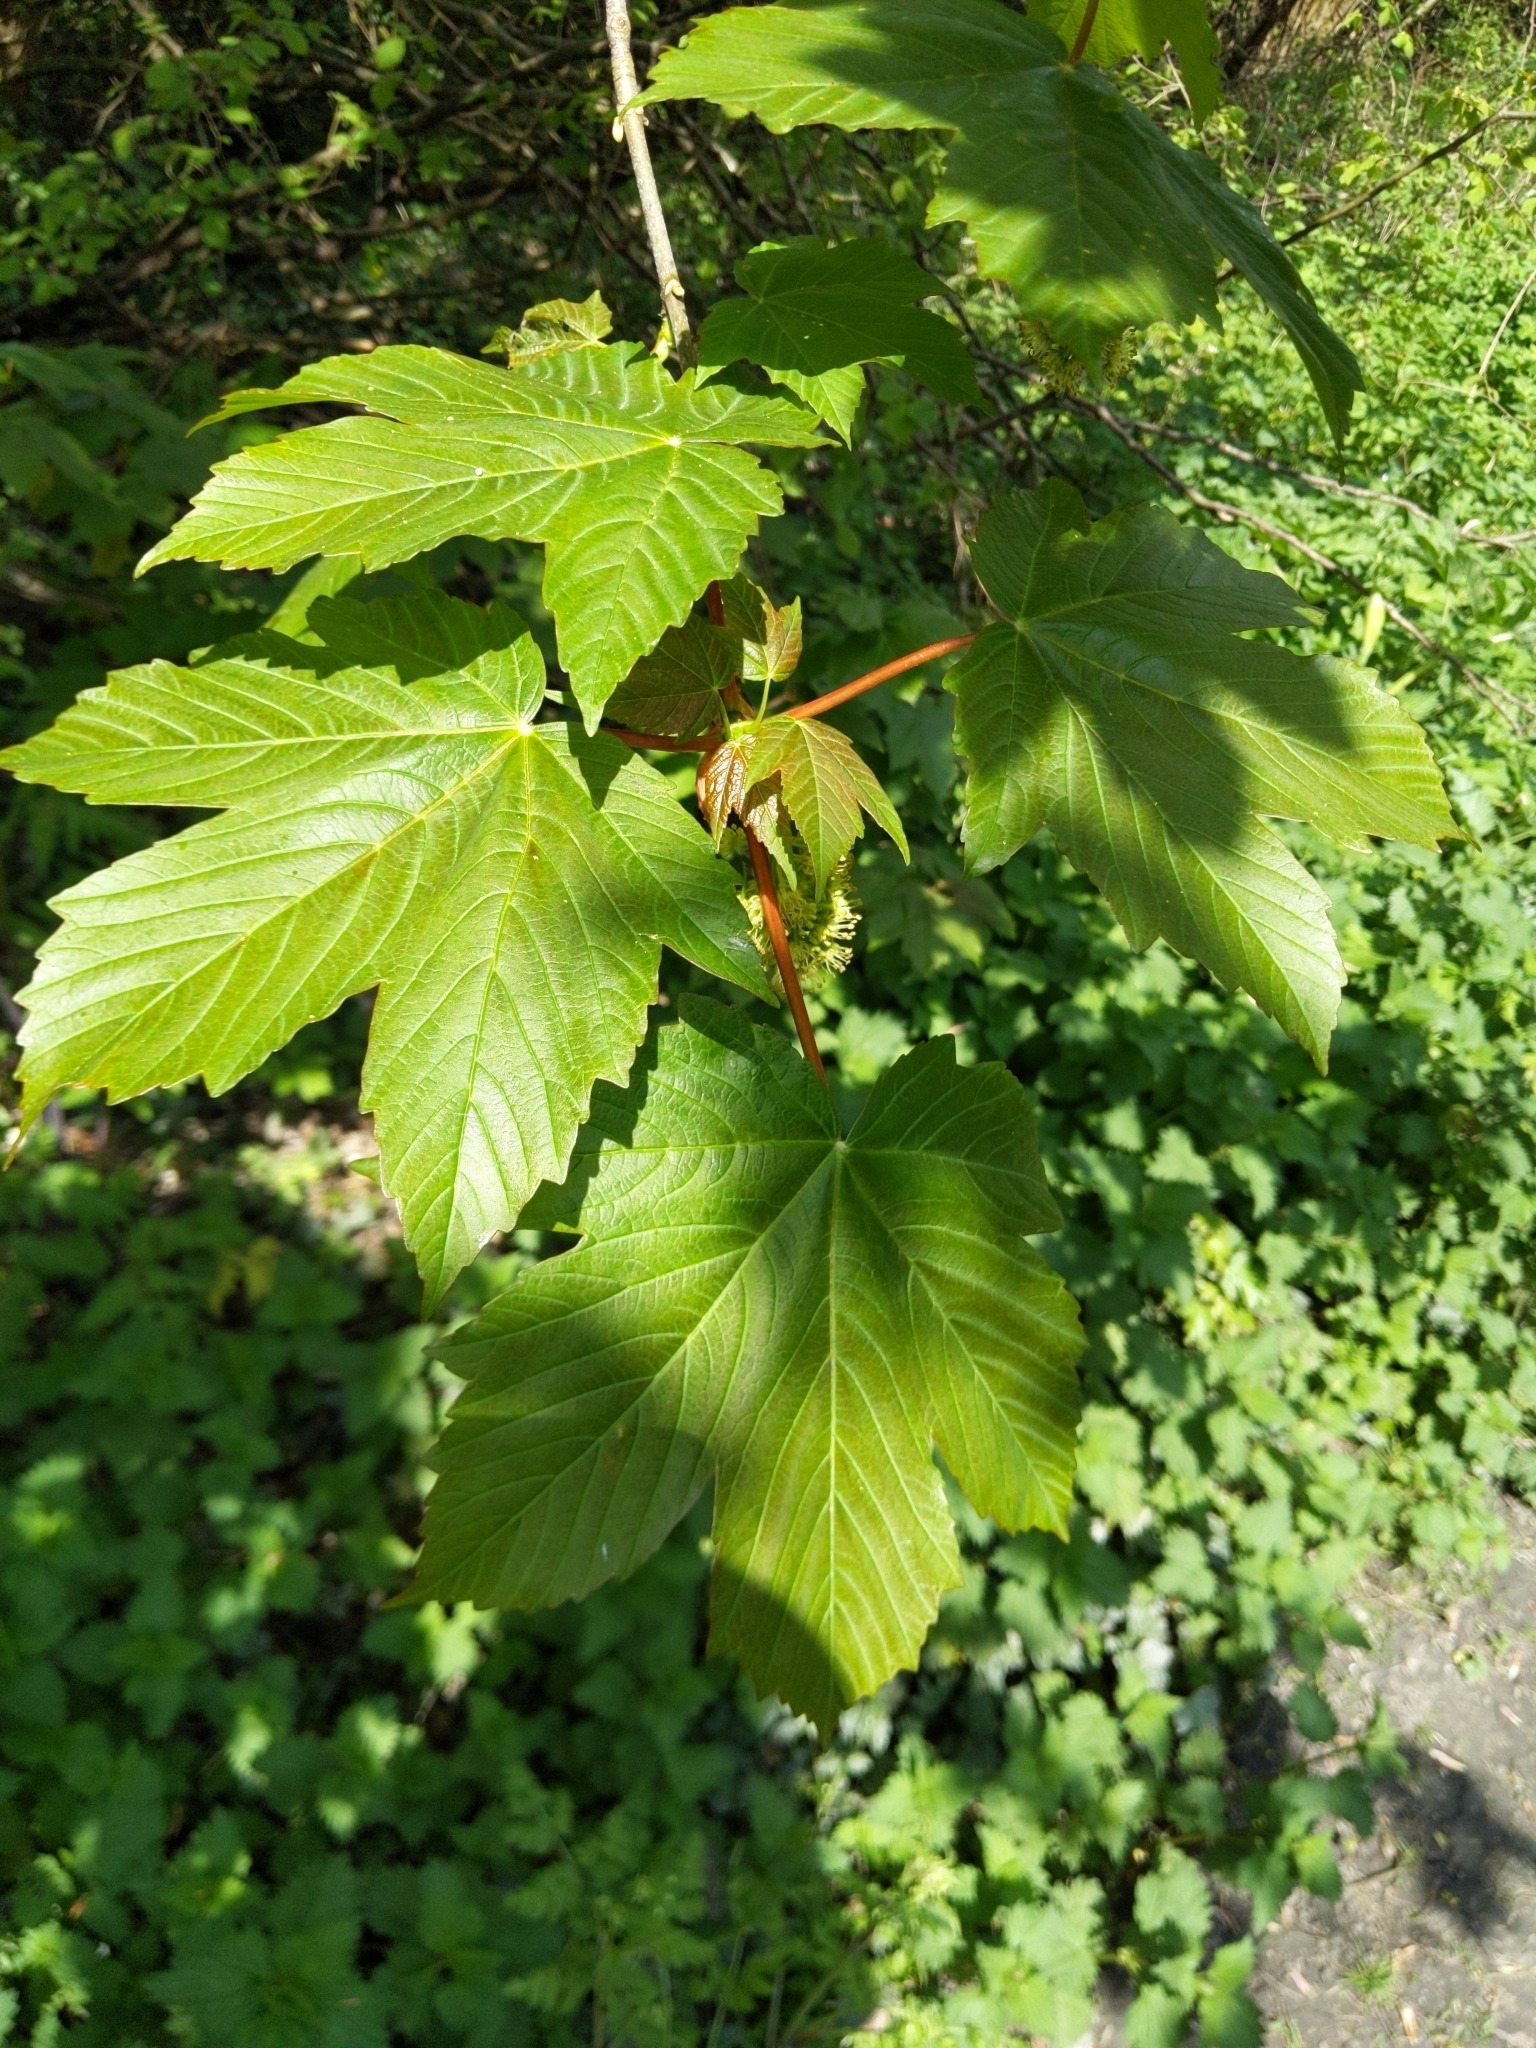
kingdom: Plantae
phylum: Tracheophyta
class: Magnoliopsida
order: Sapindales
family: Sapindaceae
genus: Acer
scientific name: Acer pseudoplatanus
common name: Sycamore
